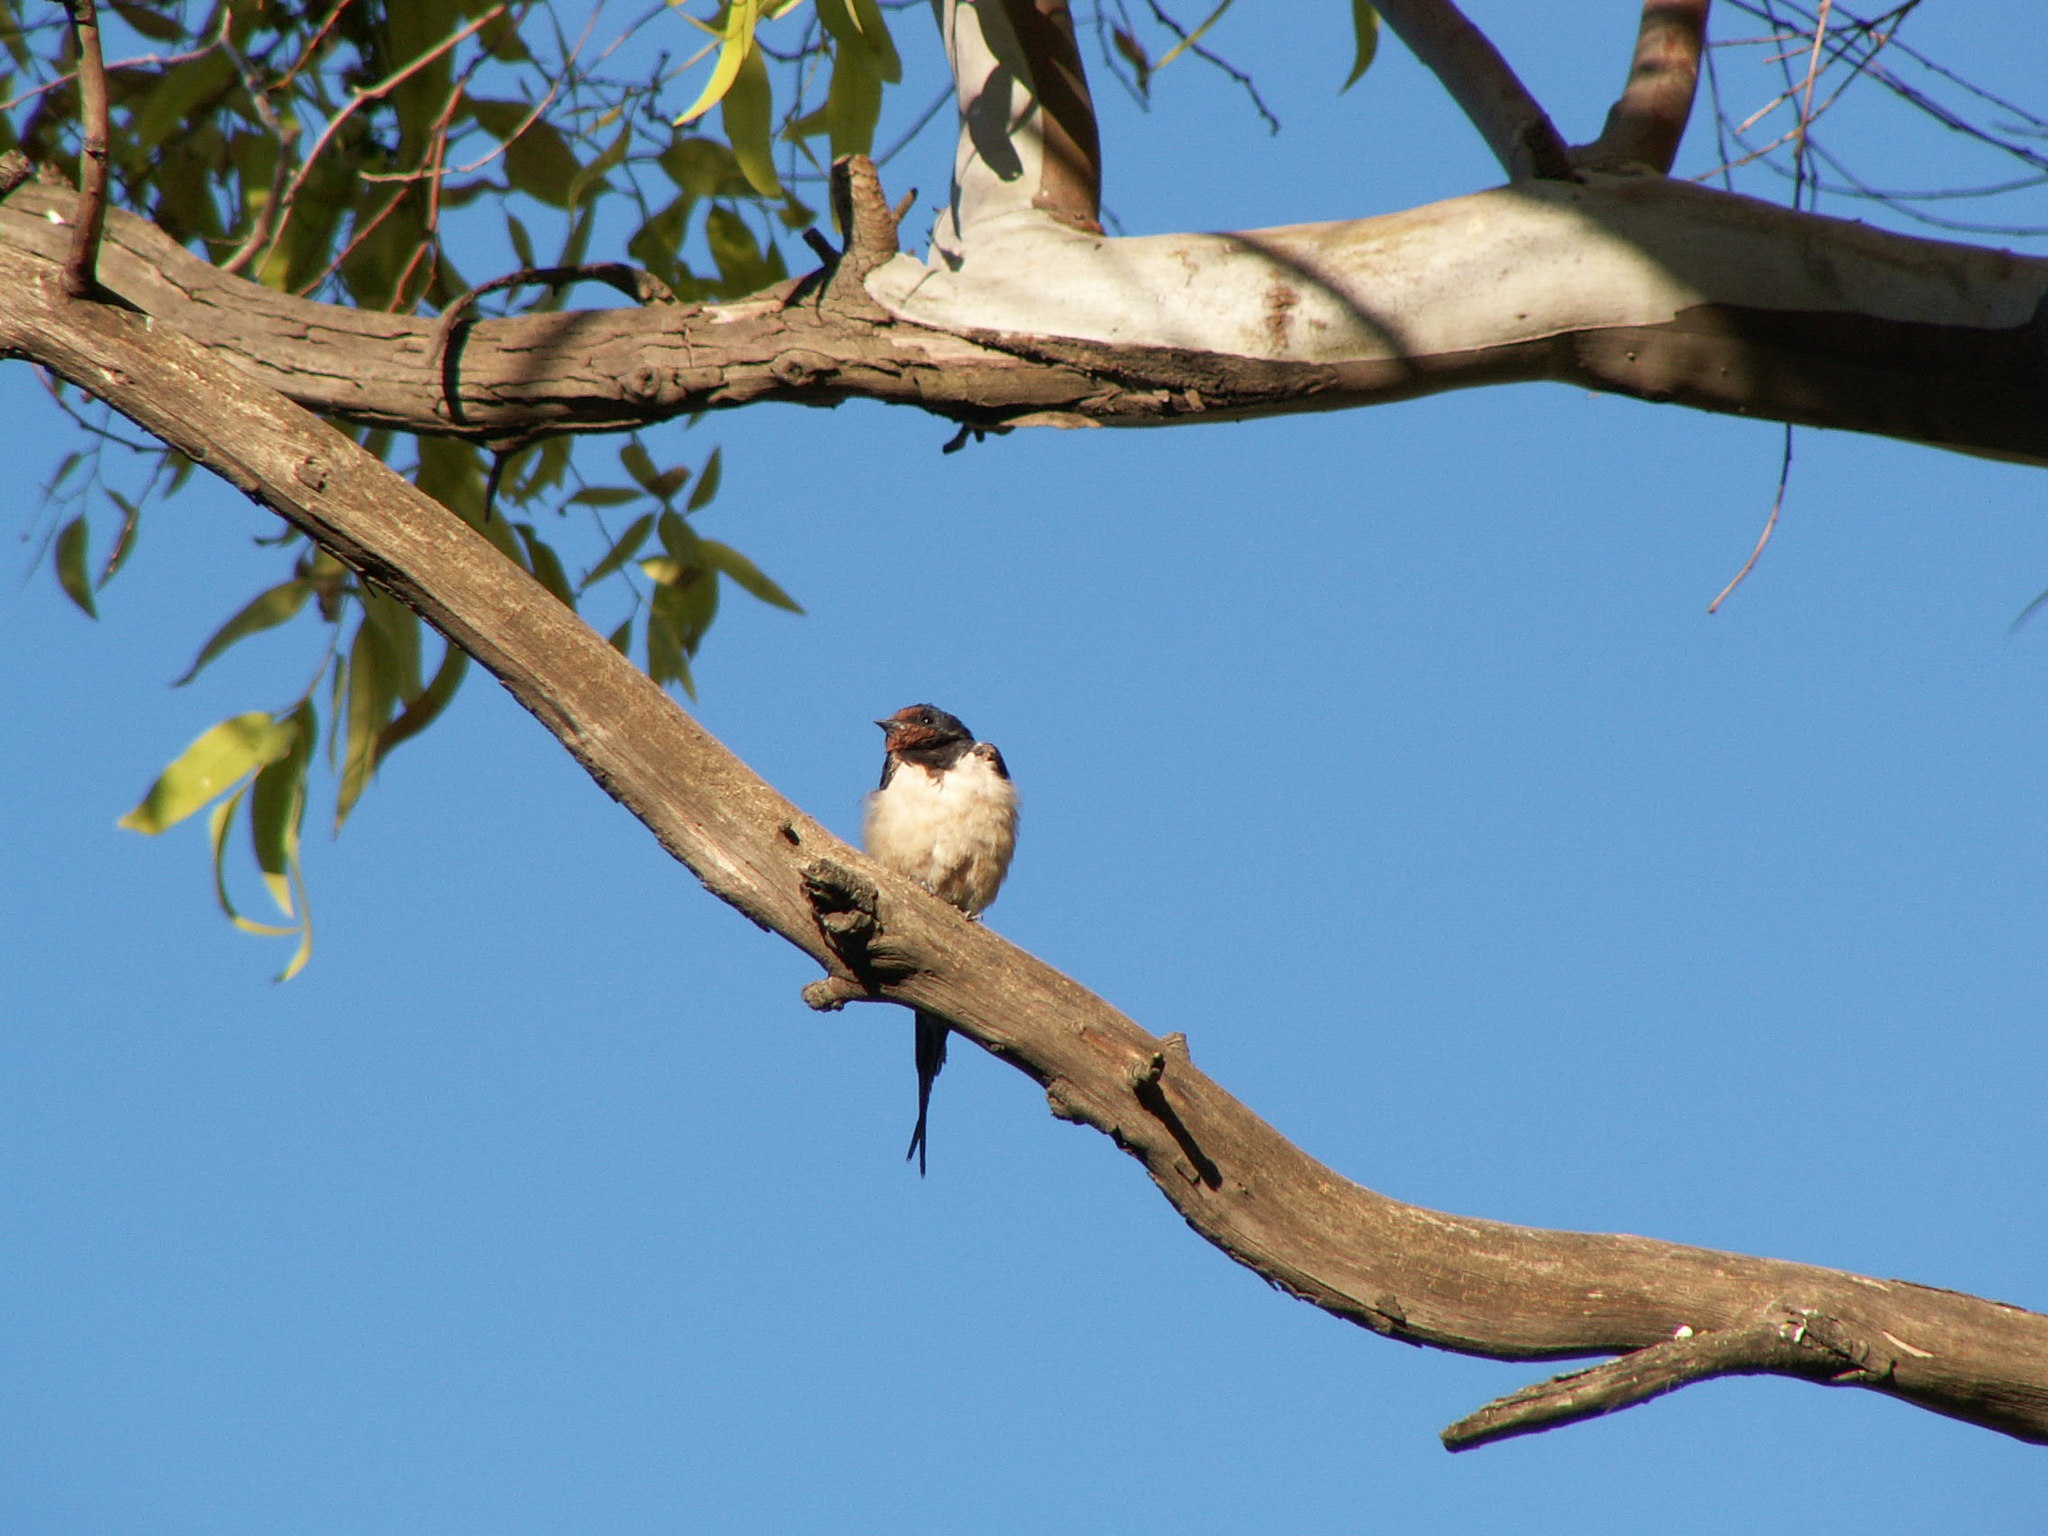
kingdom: Animalia
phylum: Chordata
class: Aves
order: Passeriformes
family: Hirundinidae
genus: Hirundo
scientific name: Hirundo rustica
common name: Barn swallow
